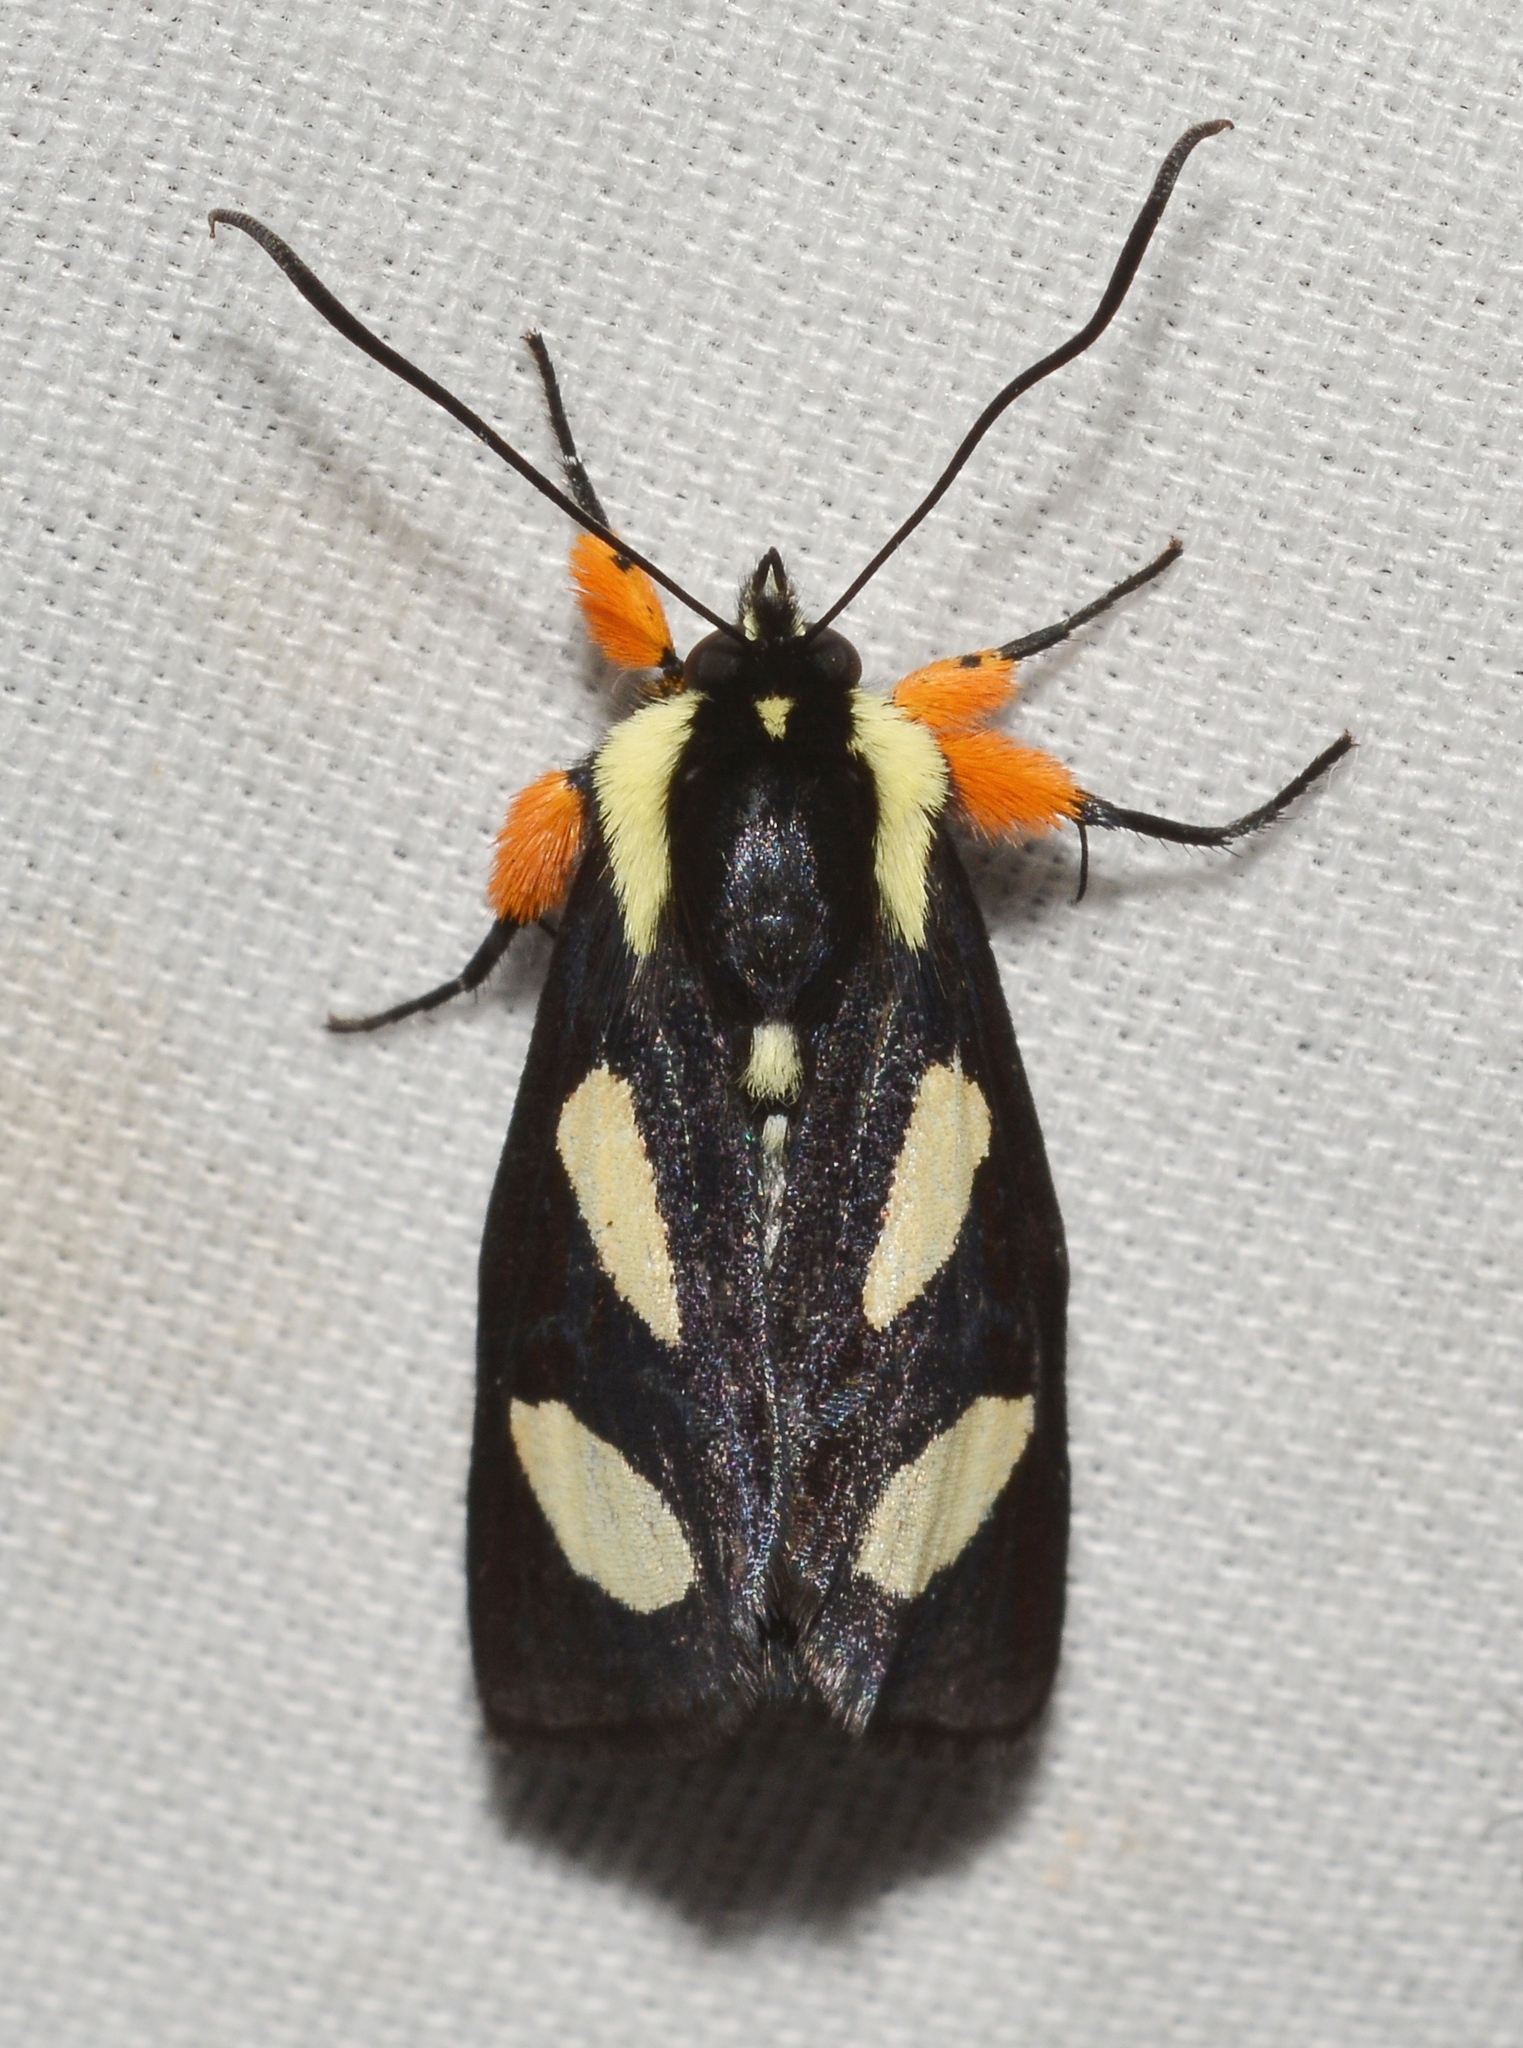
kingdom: Animalia
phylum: Arthropoda
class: Insecta
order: Lepidoptera
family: Noctuidae
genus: Alypia
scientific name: Alypia octomaculata
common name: Eight-spotted forester
